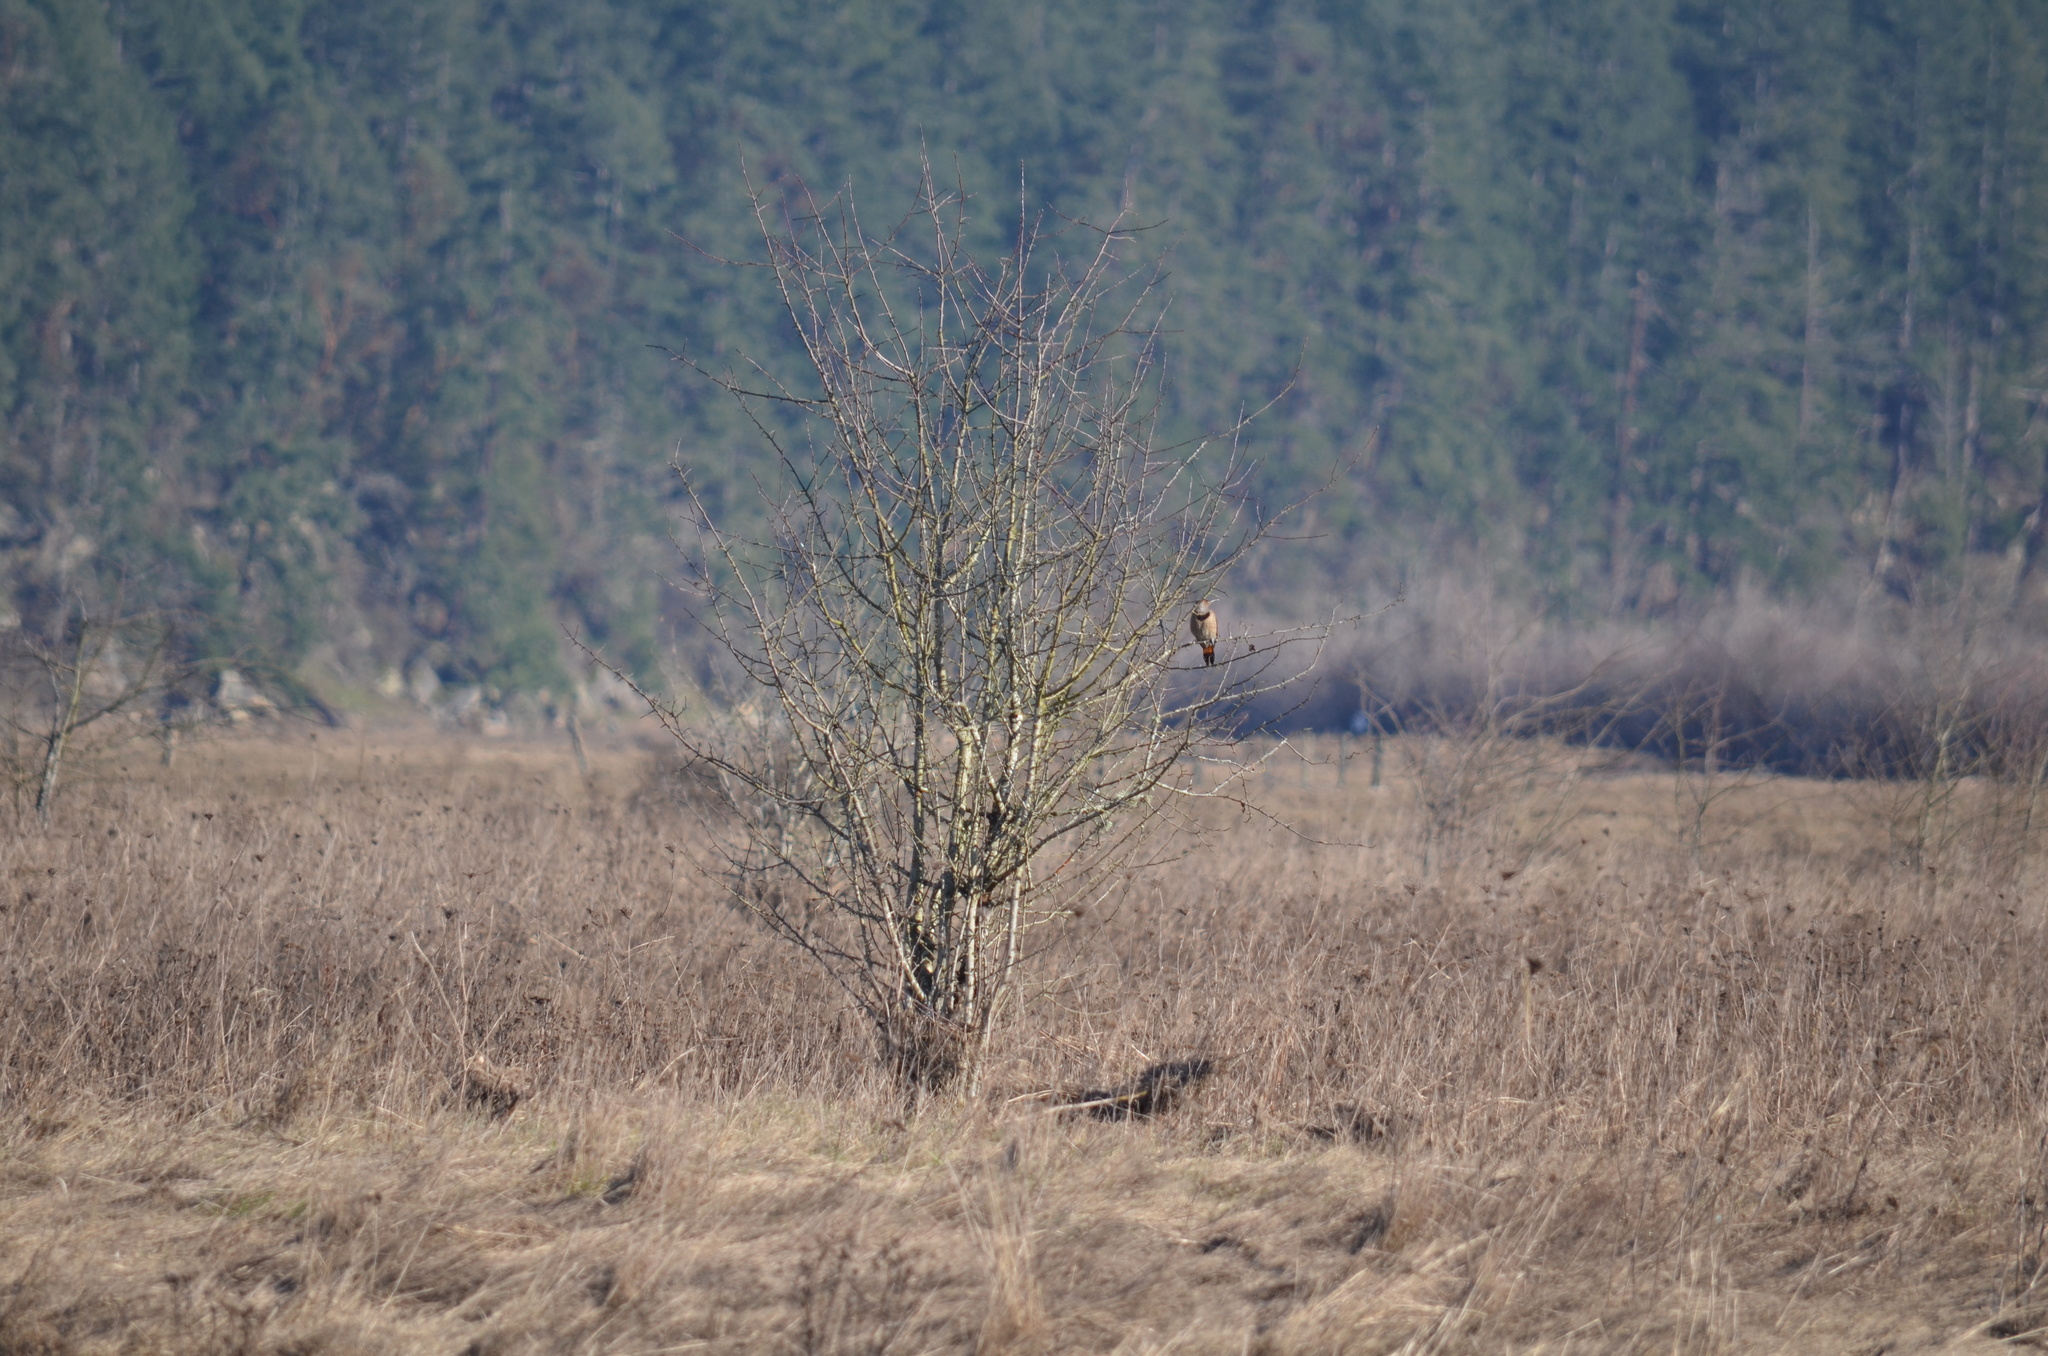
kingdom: Animalia
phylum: Chordata
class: Aves
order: Piciformes
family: Picidae
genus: Colaptes
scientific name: Colaptes auratus
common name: Northern flicker
